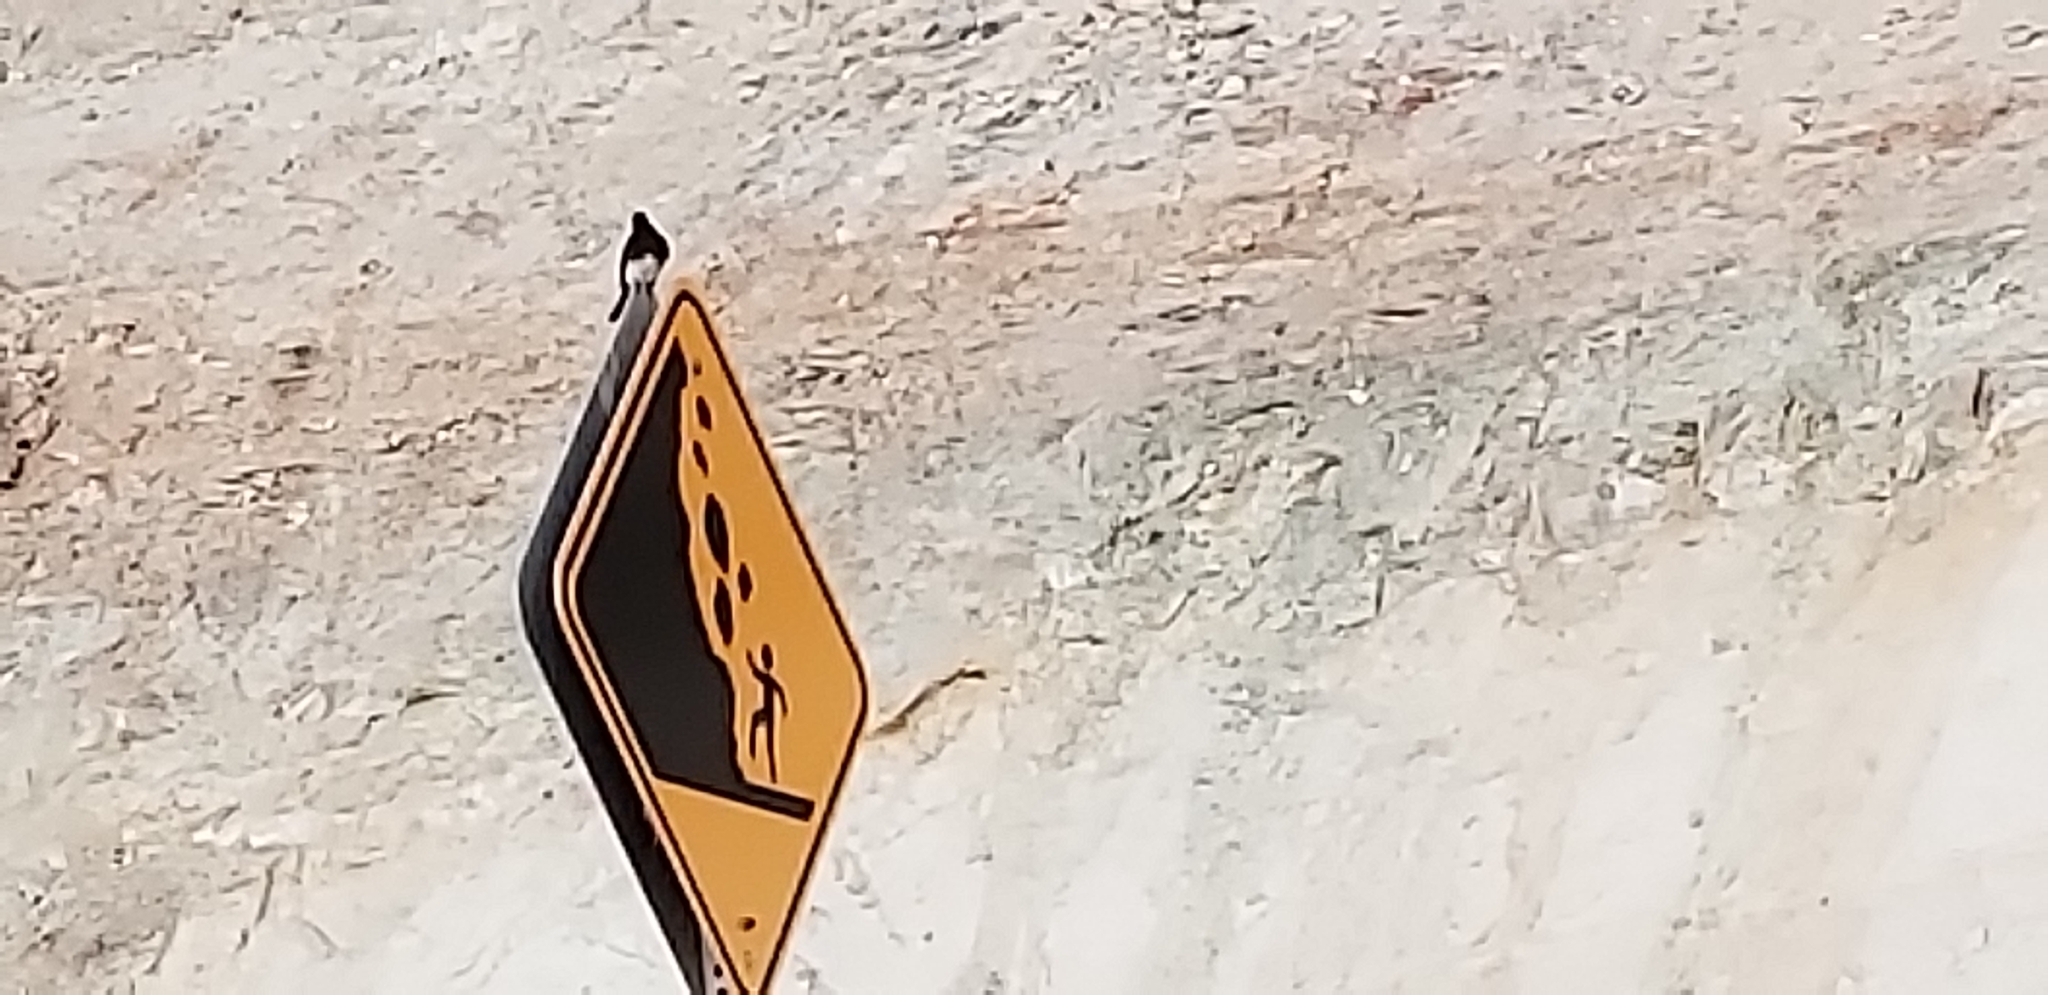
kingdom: Animalia
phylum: Chordata
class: Aves
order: Passeriformes
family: Tyrannidae
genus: Sayornis
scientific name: Sayornis nigricans
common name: Black phoebe
